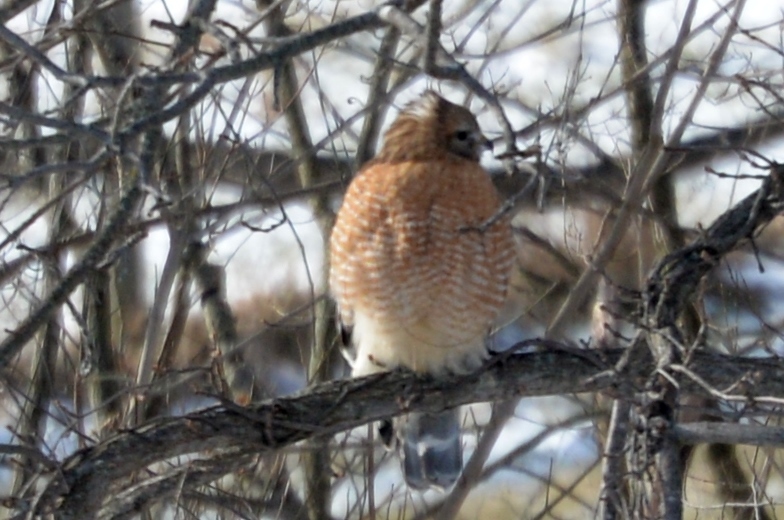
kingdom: Animalia
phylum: Chordata
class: Aves
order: Accipitriformes
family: Accipitridae
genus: Buteo
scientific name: Buteo lineatus
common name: Red-shouldered hawk
